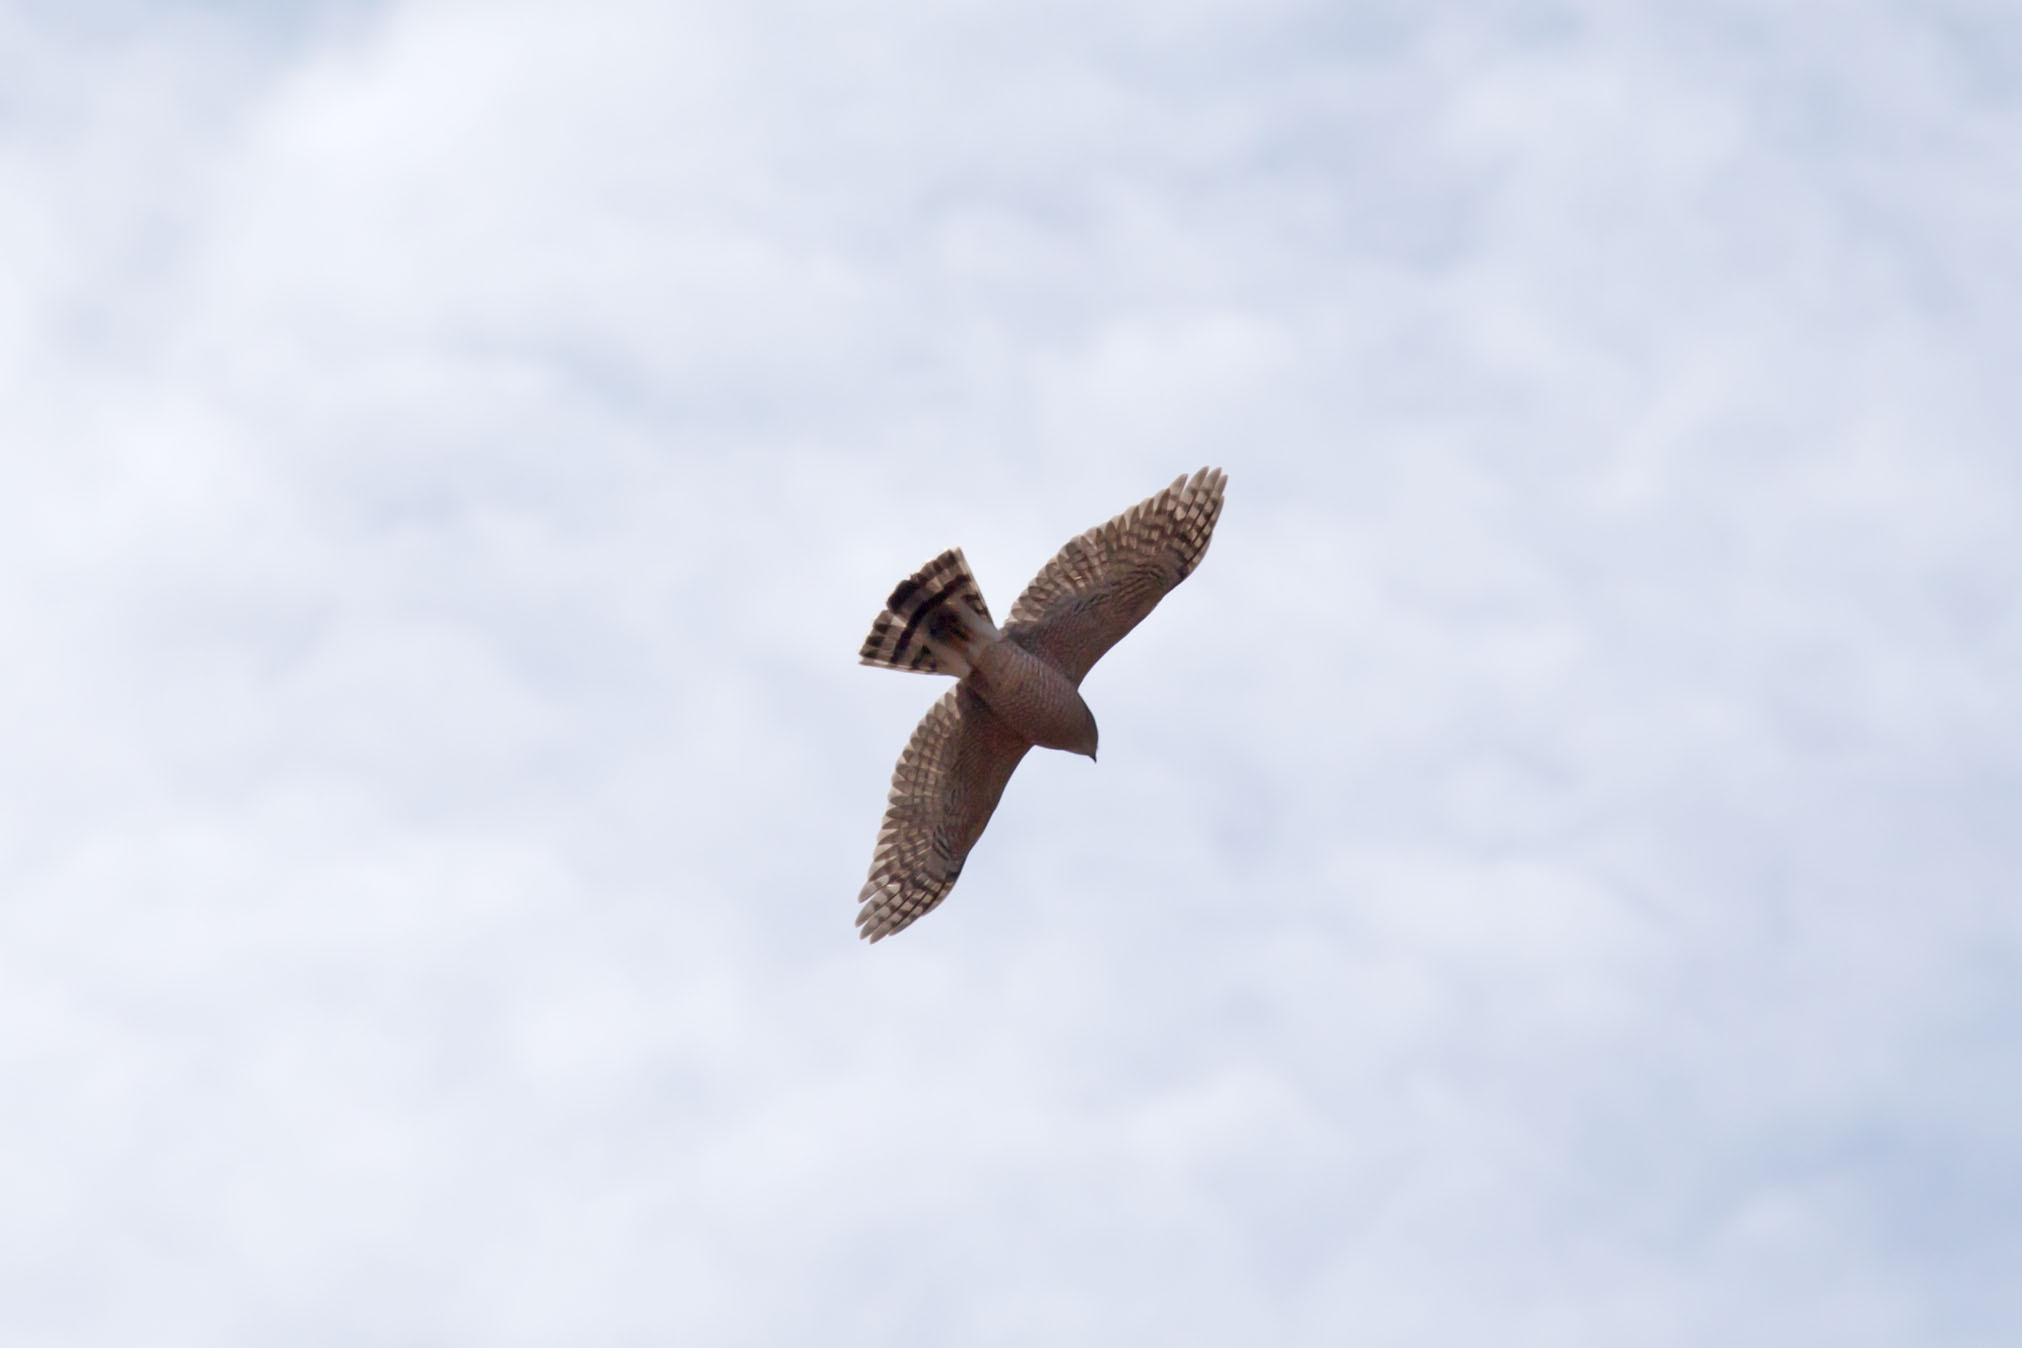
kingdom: Animalia
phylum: Chordata
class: Aves
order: Accipitriformes
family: Accipitridae
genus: Accipiter
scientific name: Accipiter cooperii
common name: Cooper's hawk
